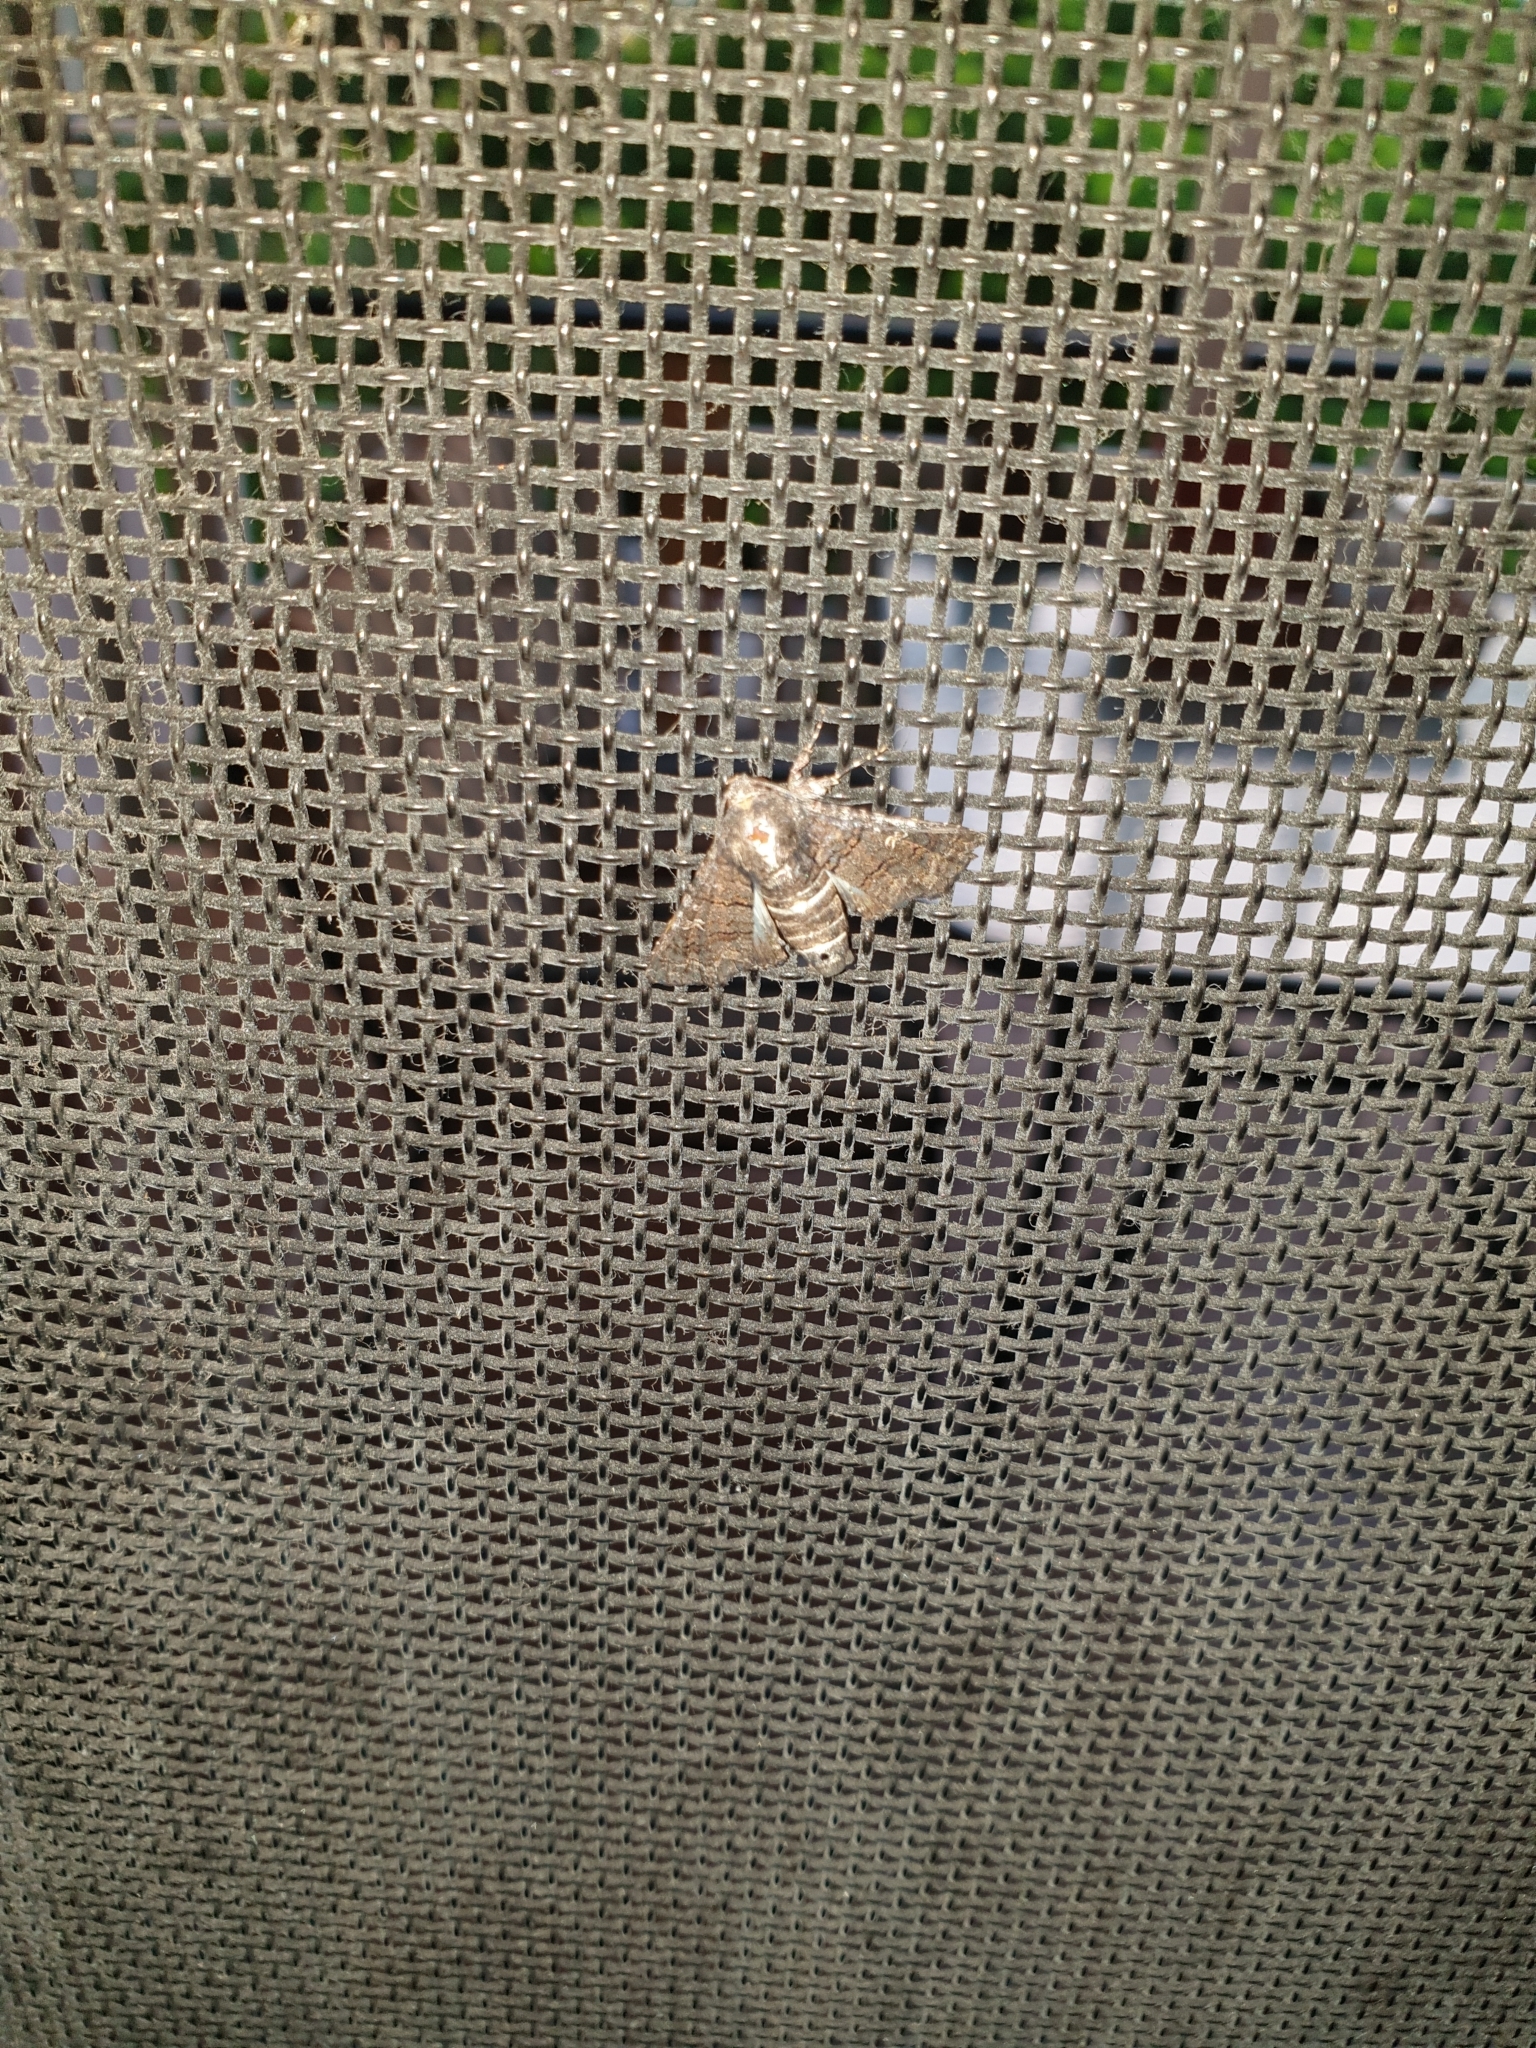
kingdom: Animalia
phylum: Arthropoda
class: Insecta
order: Lepidoptera
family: Euteliidae
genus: Pataeta
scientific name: Pataeta carbo
